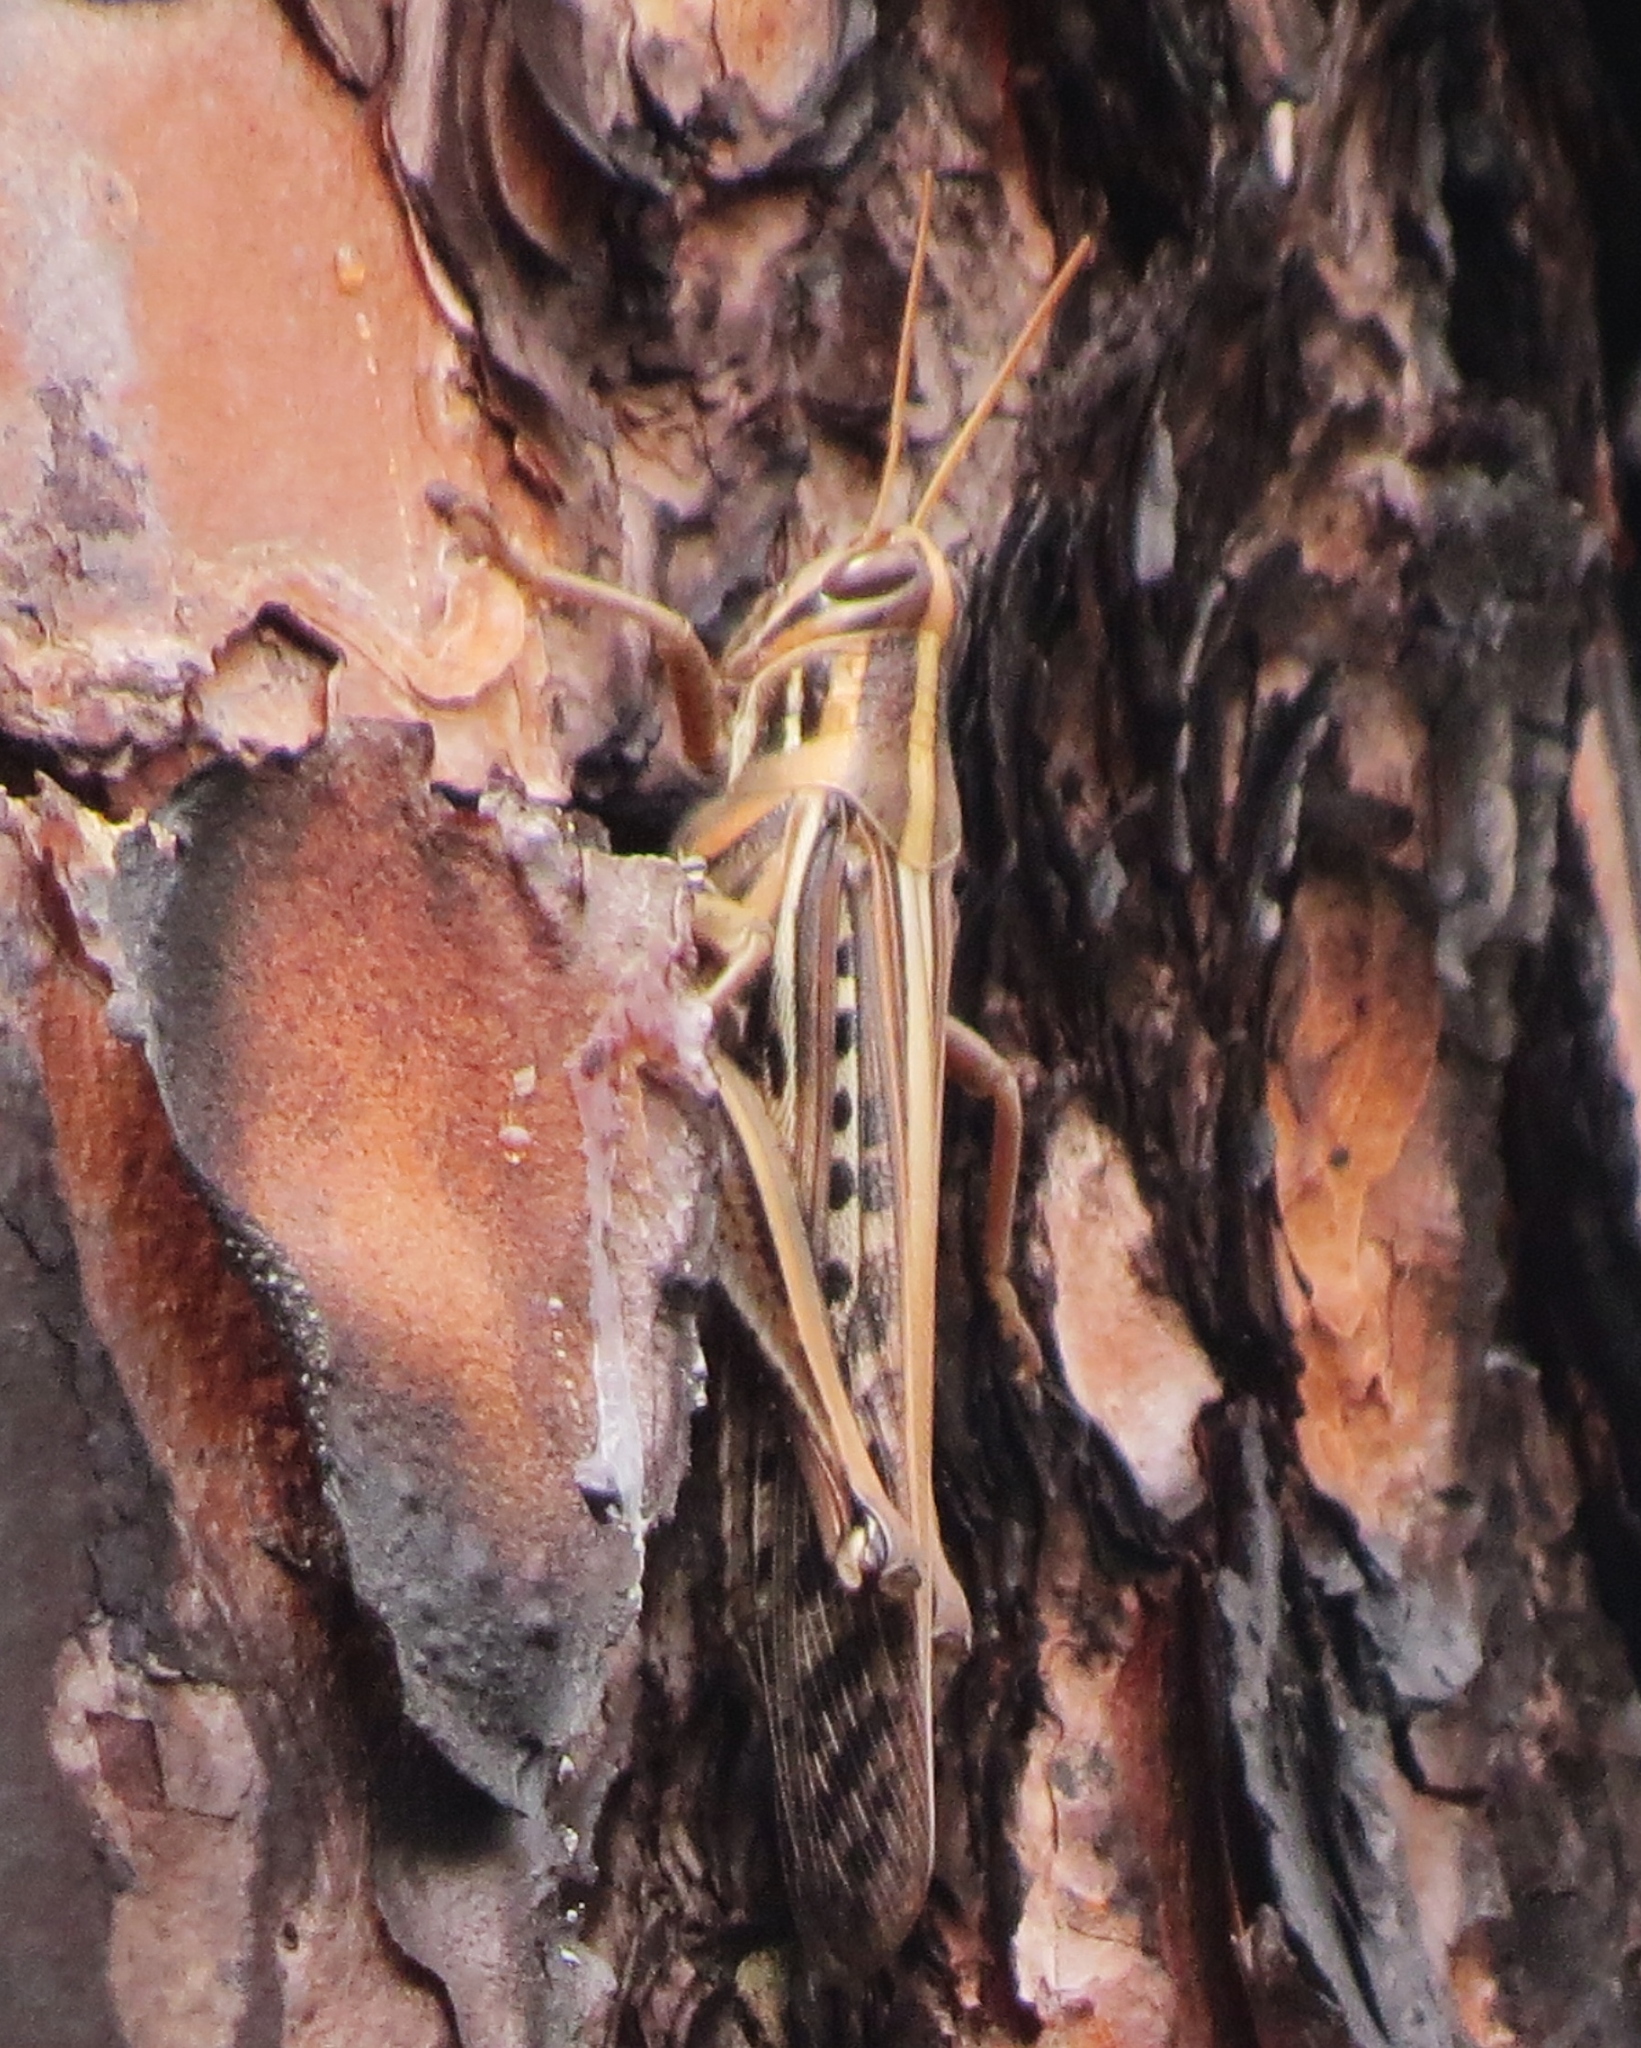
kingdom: Animalia
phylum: Arthropoda
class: Insecta
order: Orthoptera
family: Acrididae
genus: Schistocerca
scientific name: Schistocerca americana
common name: American bird locust
